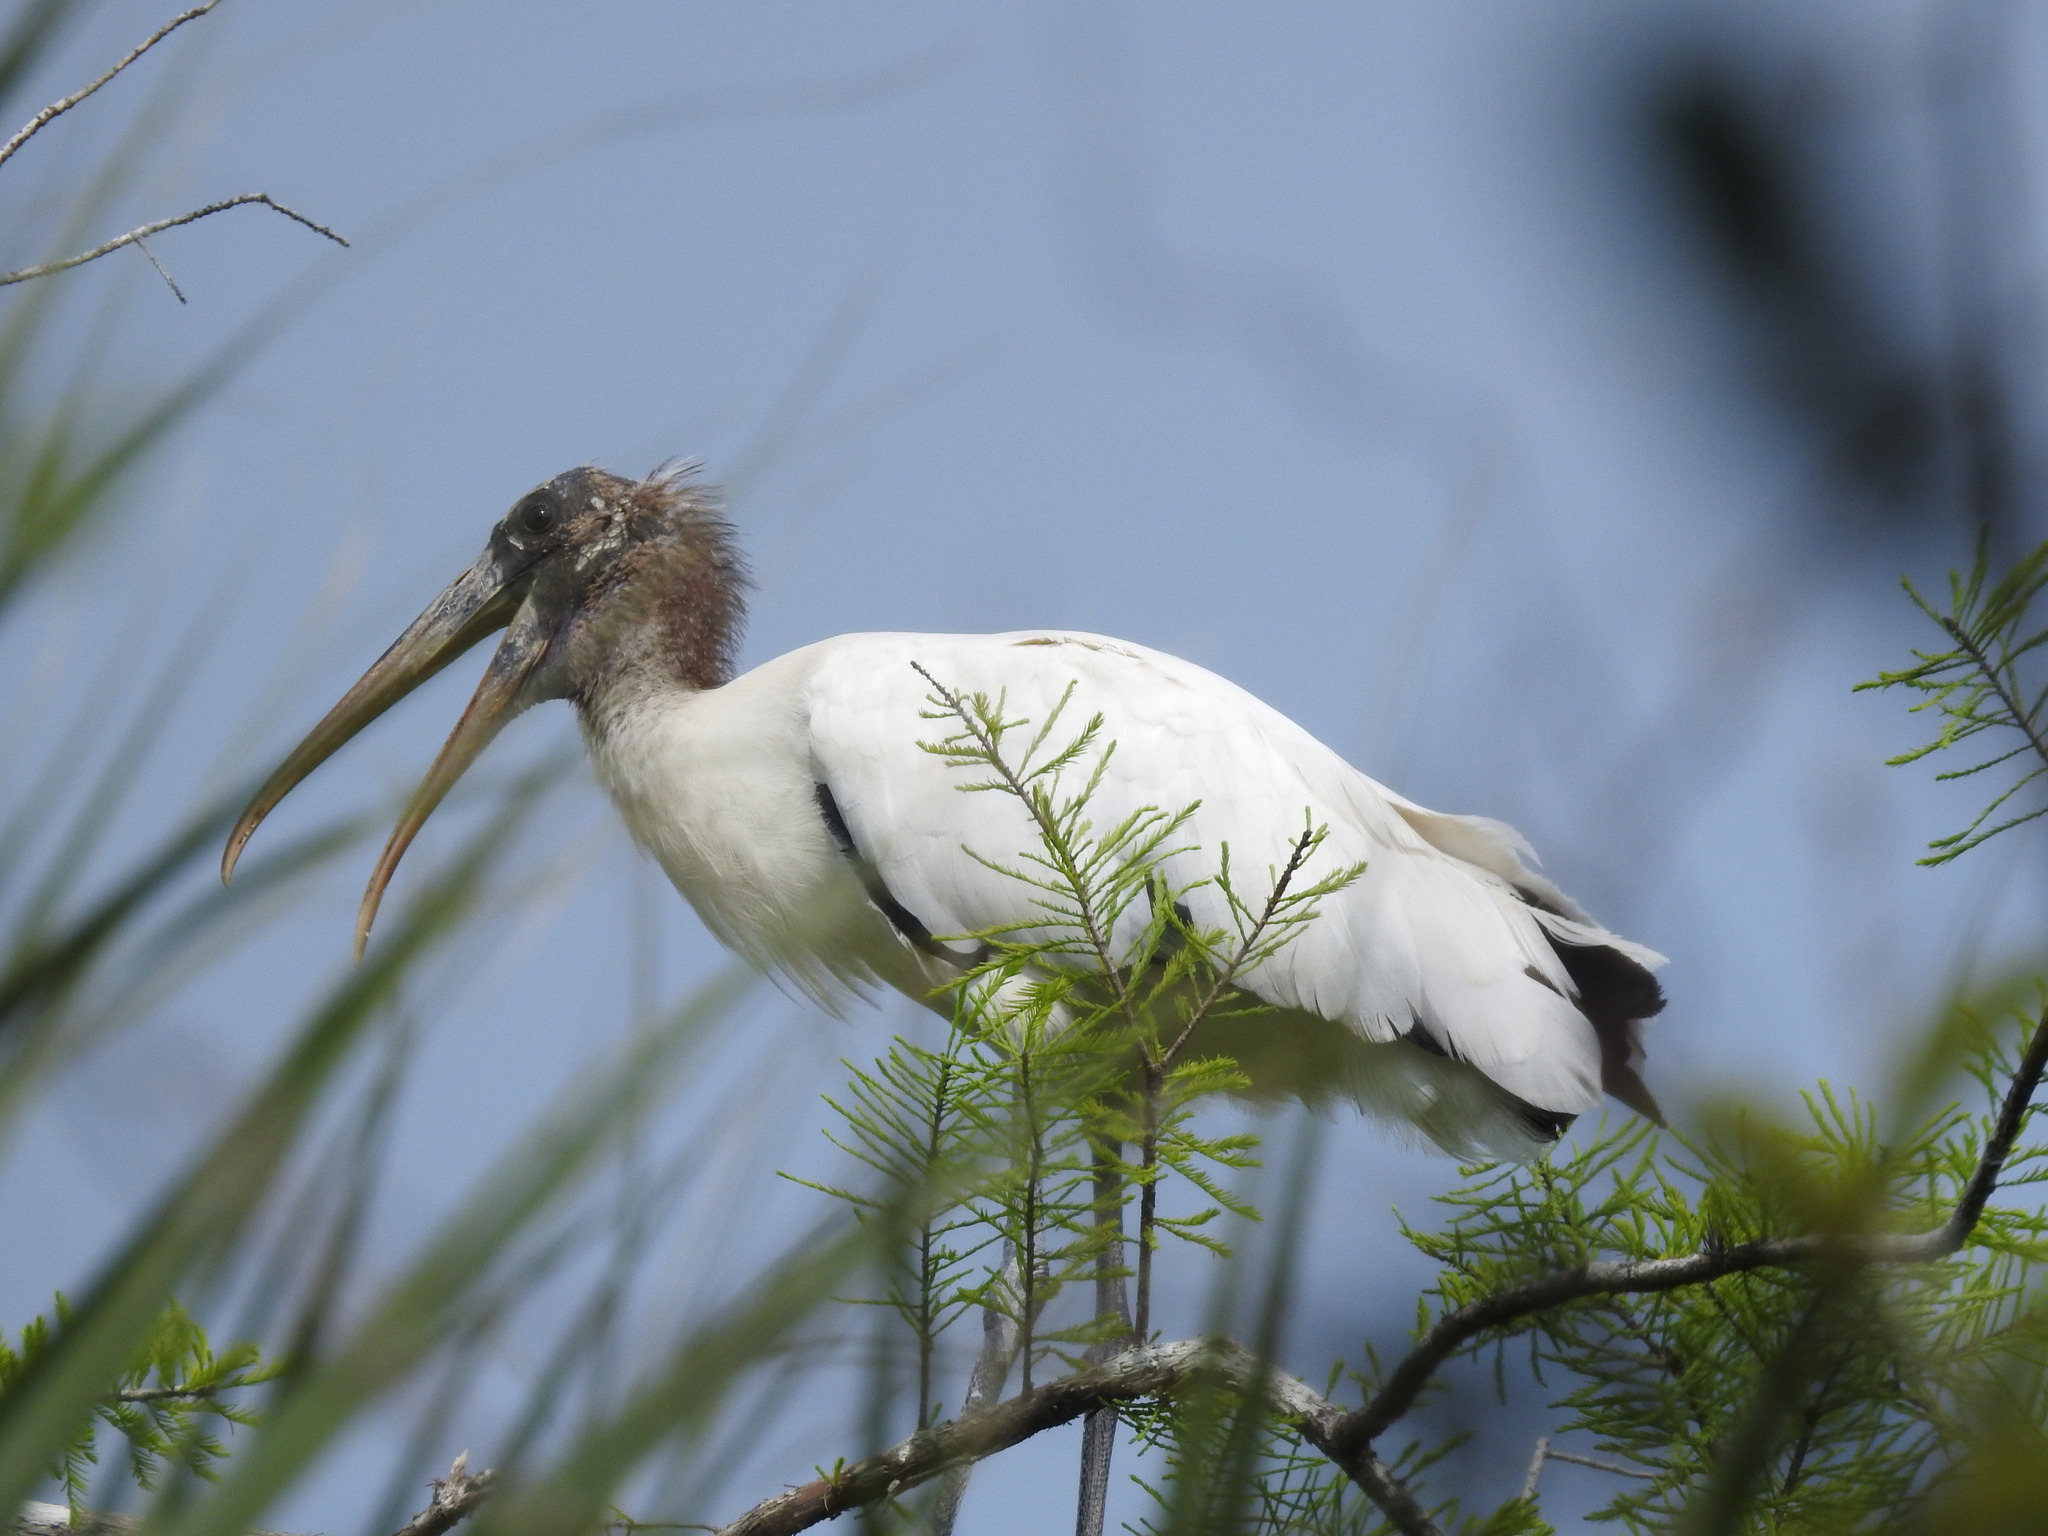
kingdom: Animalia
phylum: Chordata
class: Aves
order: Ciconiiformes
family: Ciconiidae
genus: Mycteria
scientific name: Mycteria americana
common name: Wood stork
